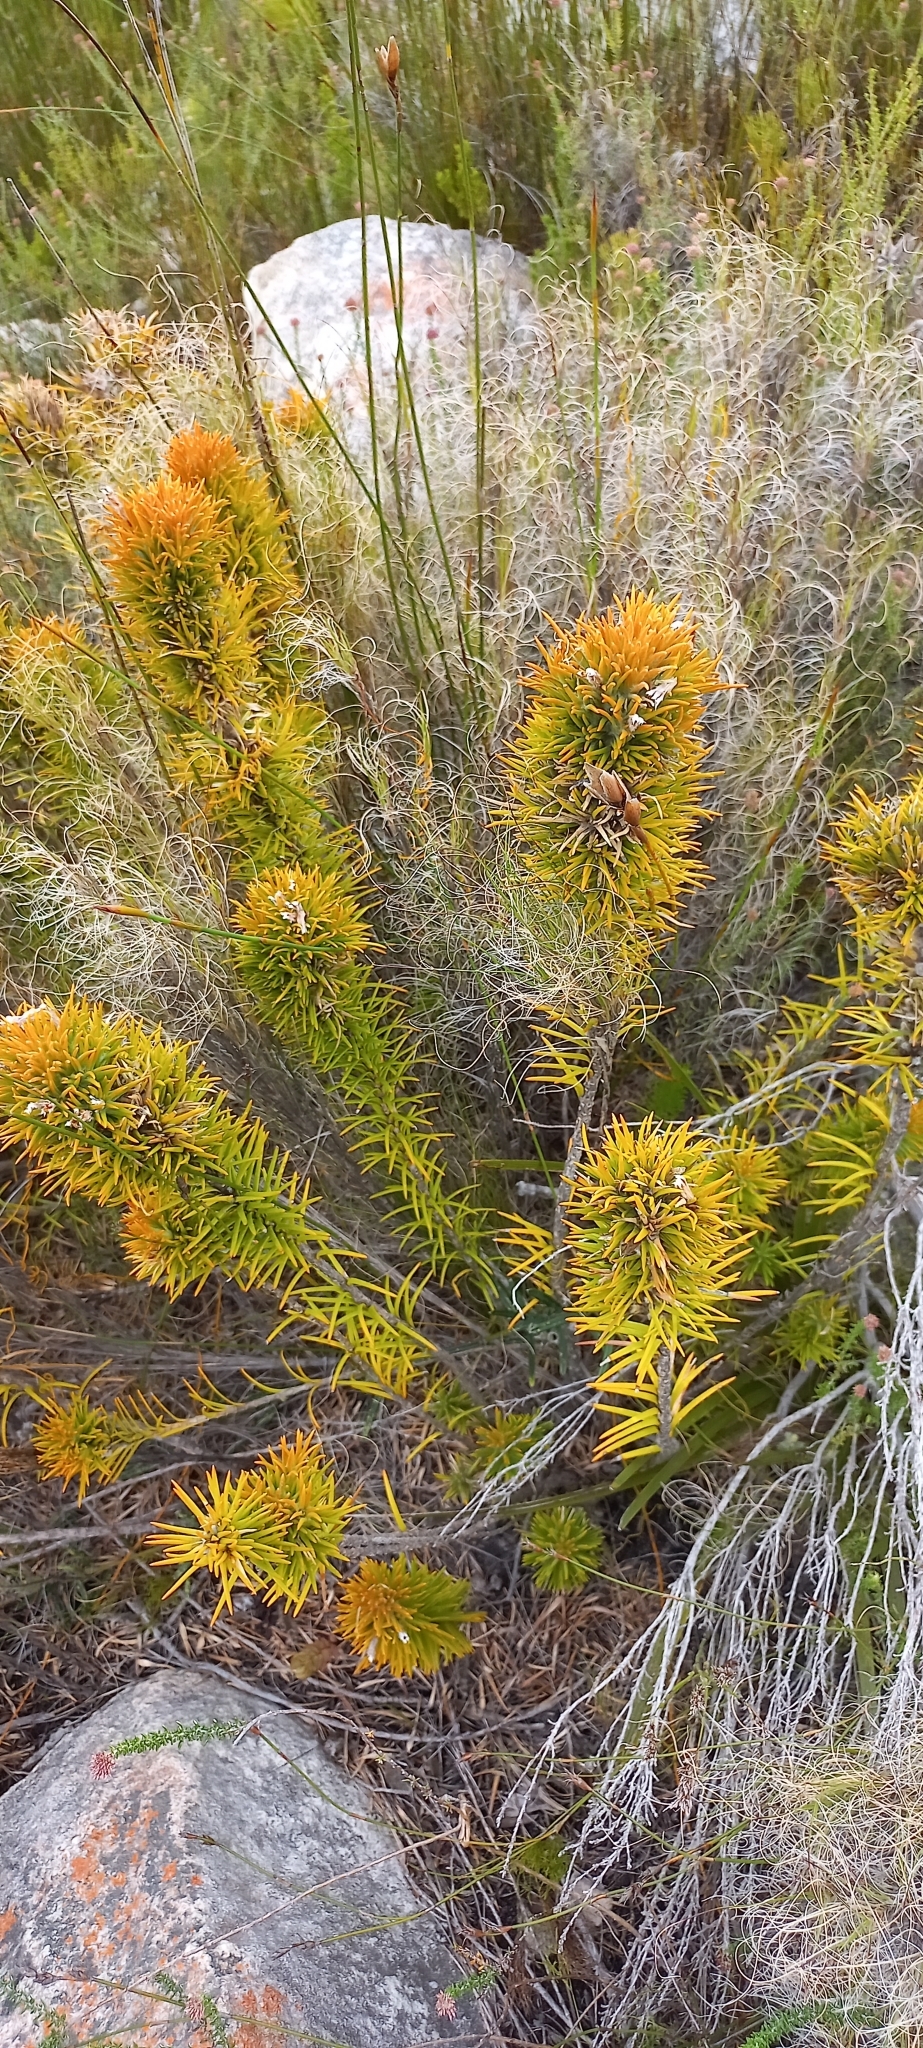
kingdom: Plantae
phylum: Tracheophyta
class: Magnoliopsida
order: Lamiales
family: Stilbaceae
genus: Retzia
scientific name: Retzia capensis
